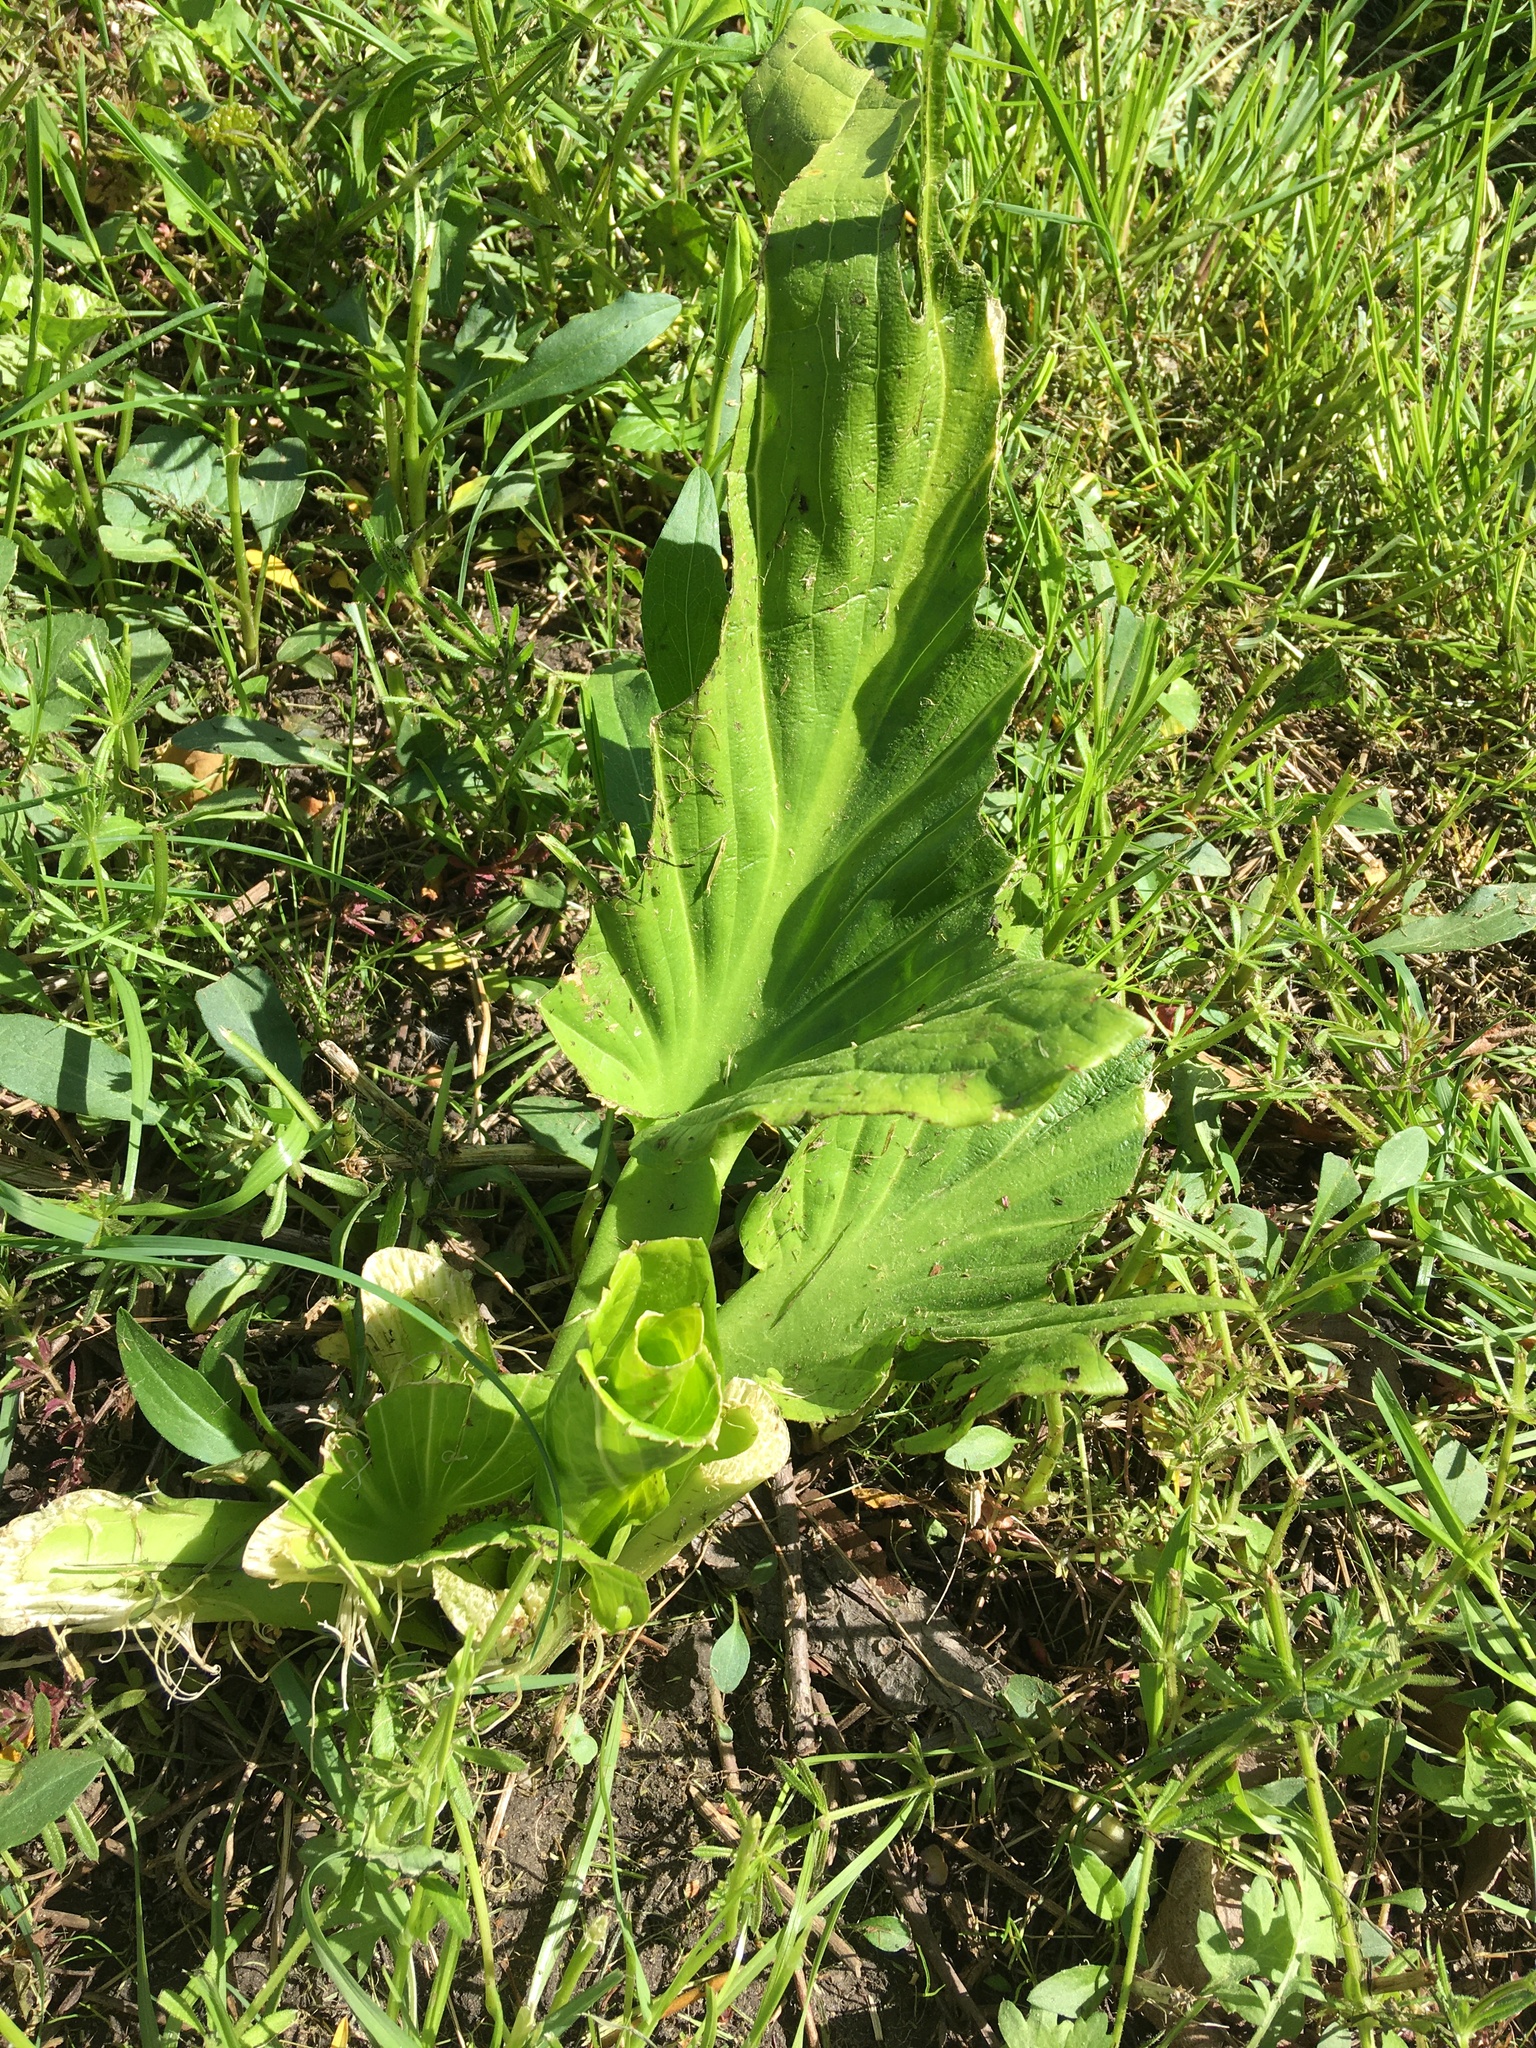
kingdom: Plantae
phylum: Tracheophyta
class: Liliopsida
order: Alismatales
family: Araceae
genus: Symplocarpus
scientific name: Symplocarpus foetidus
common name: Eastern skunk cabbage
